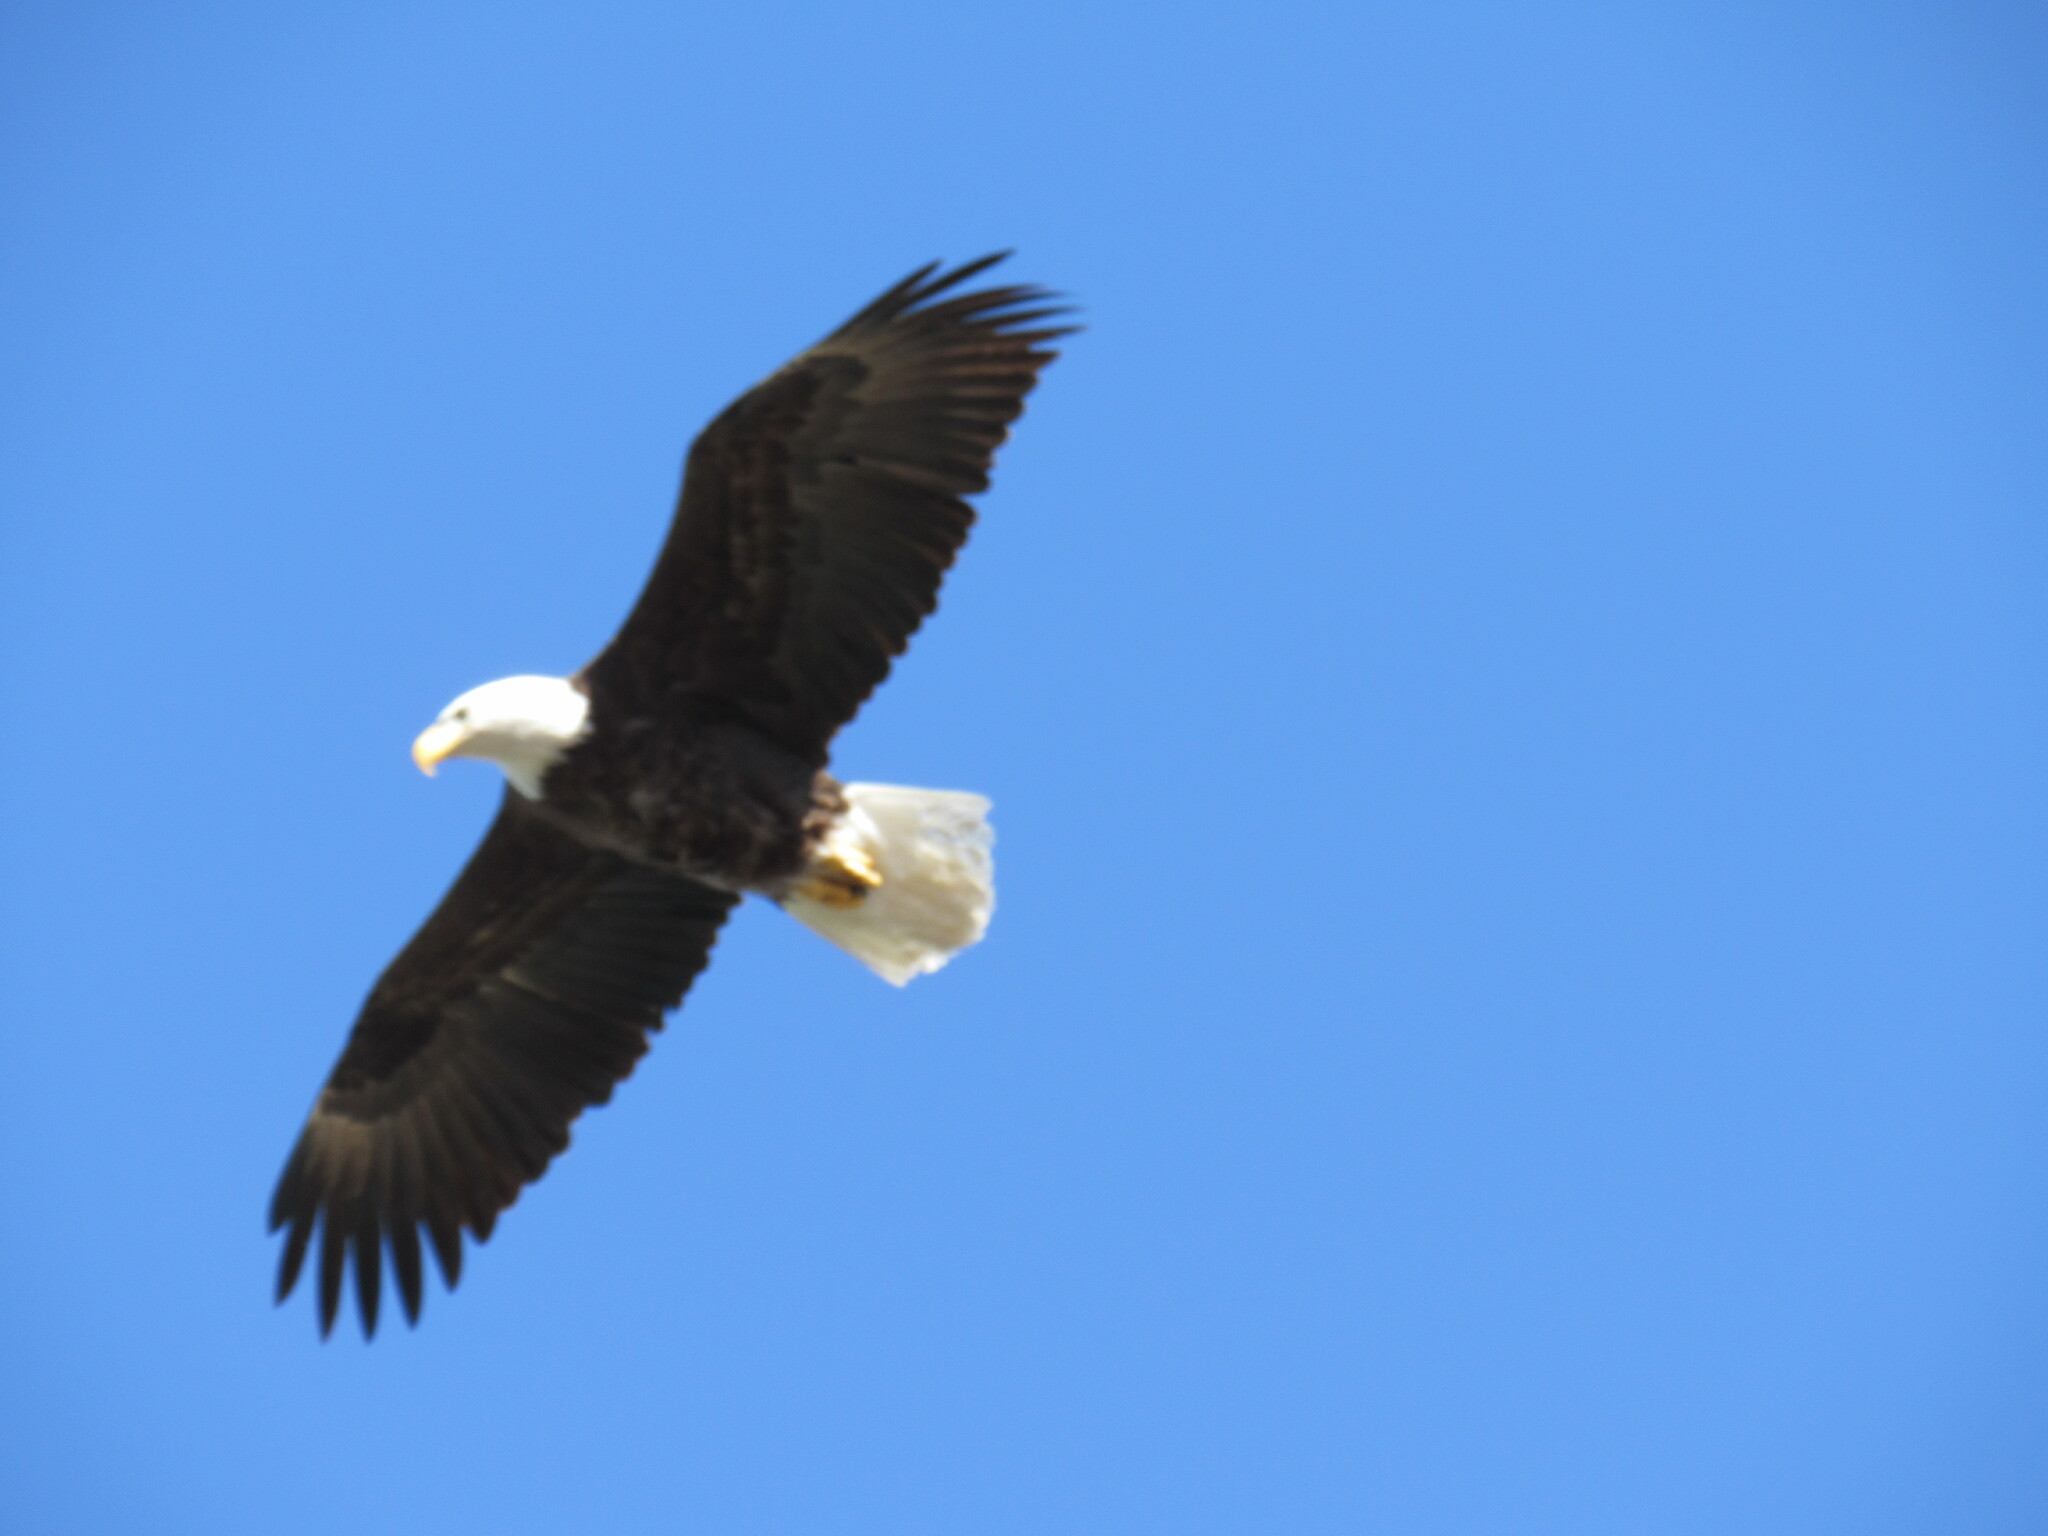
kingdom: Animalia
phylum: Chordata
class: Aves
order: Accipitriformes
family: Accipitridae
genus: Haliaeetus
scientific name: Haliaeetus leucocephalus
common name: Bald eagle
